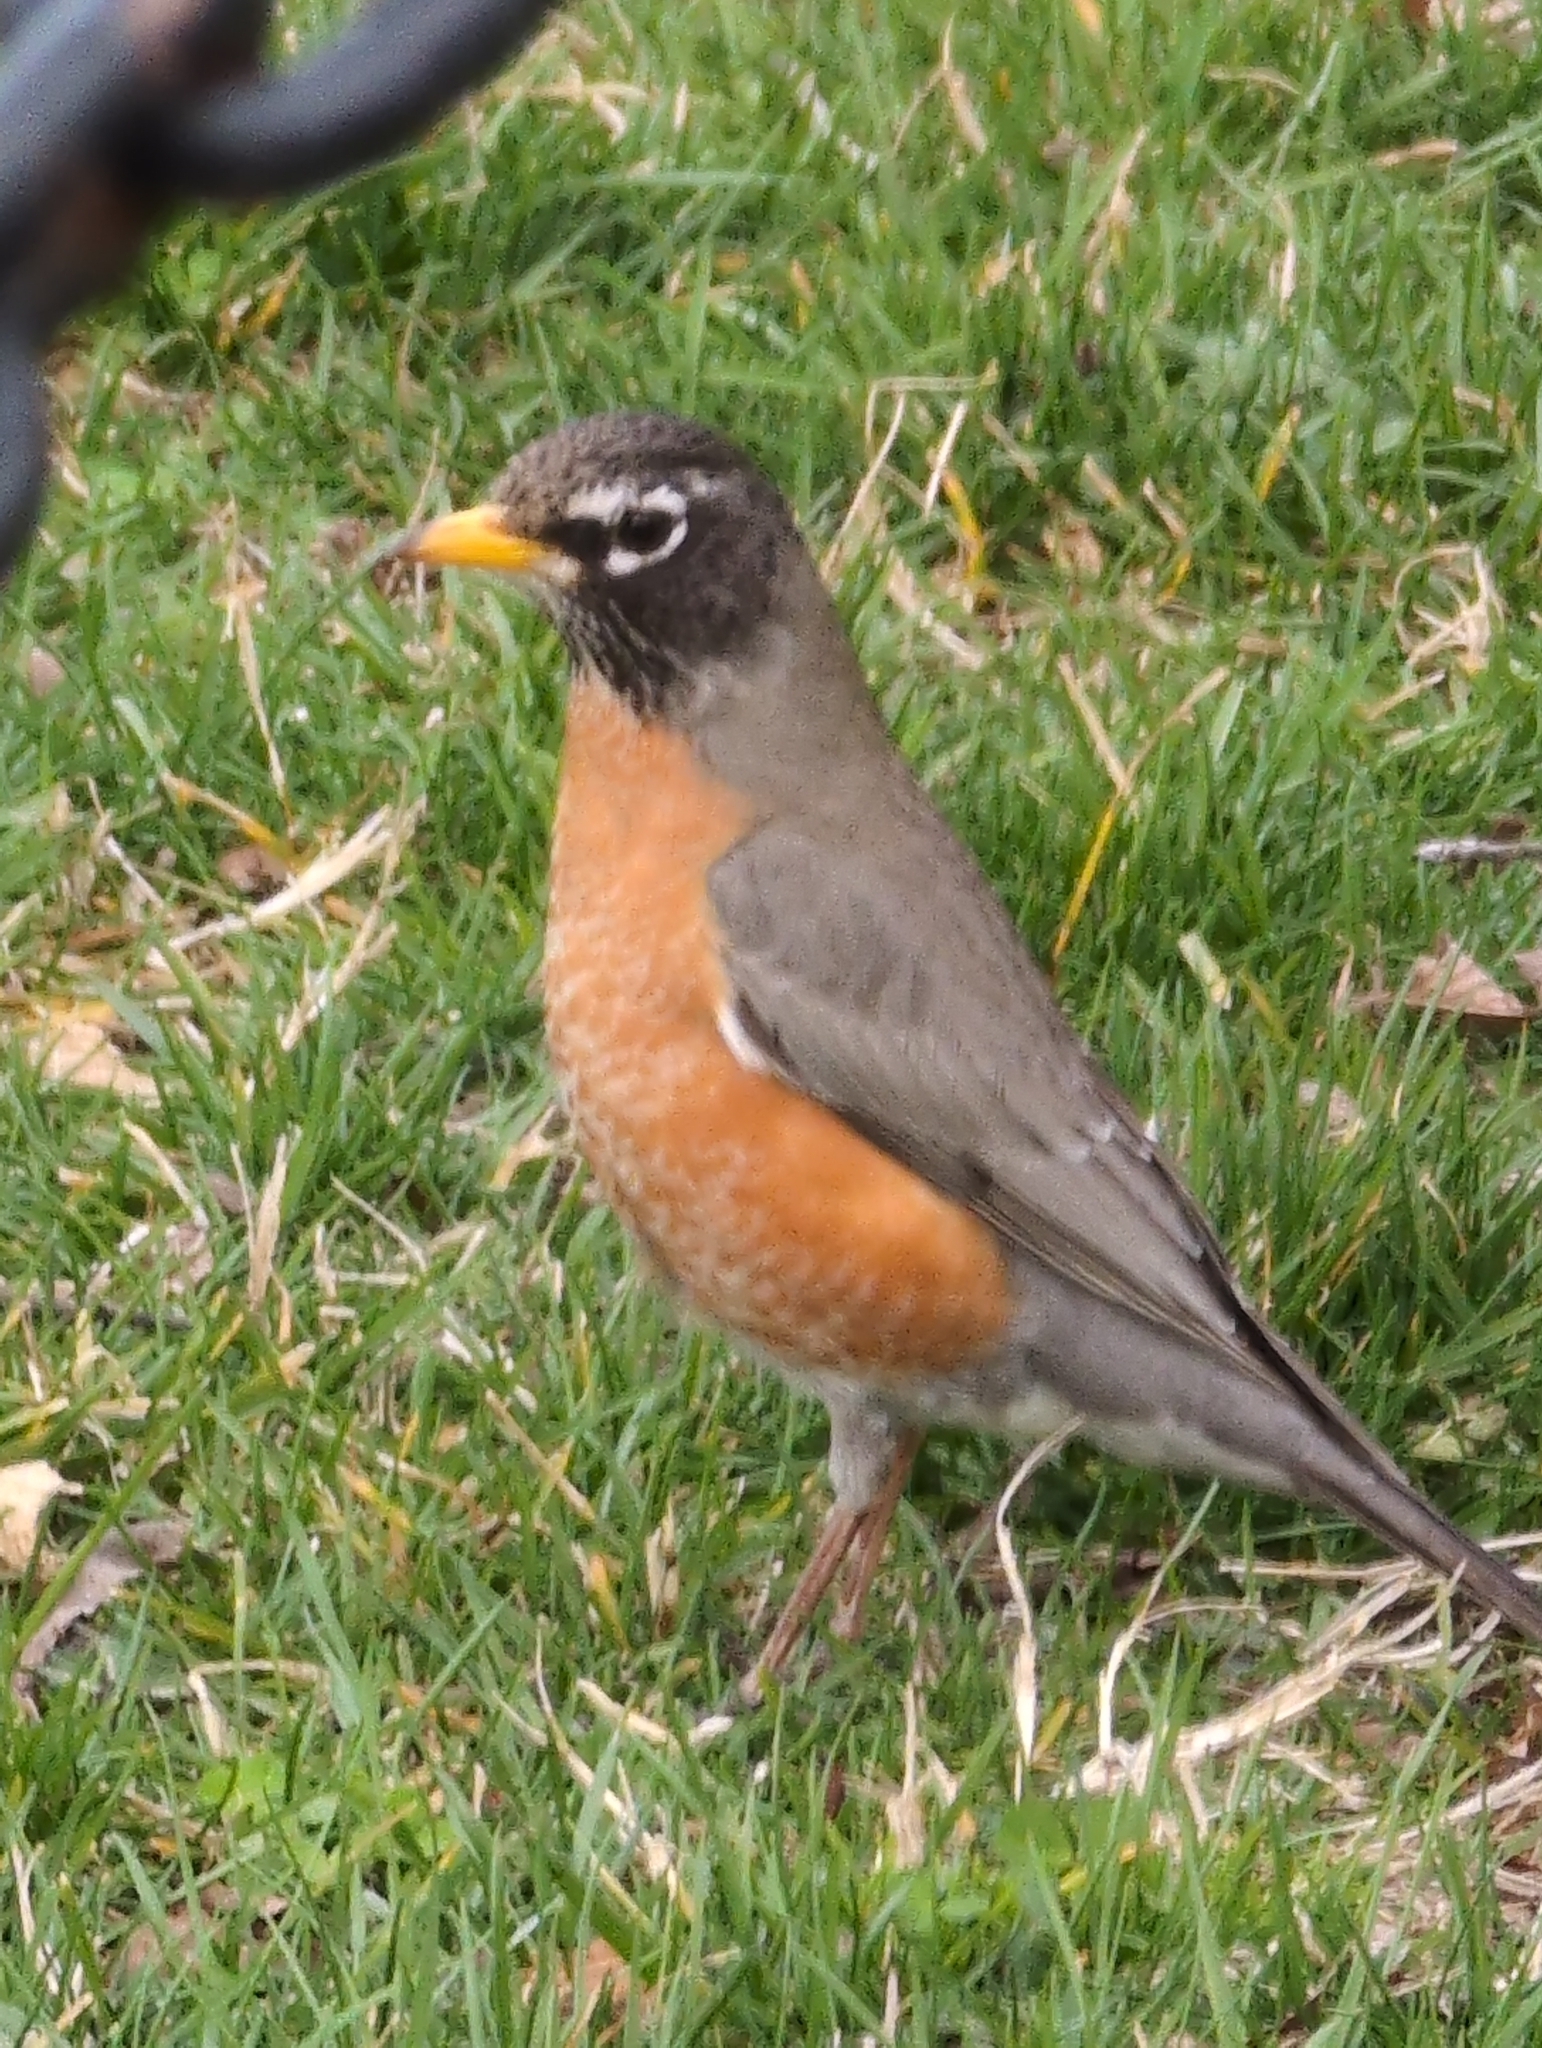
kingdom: Animalia
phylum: Chordata
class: Aves
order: Passeriformes
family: Turdidae
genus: Turdus
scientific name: Turdus migratorius
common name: American robin
